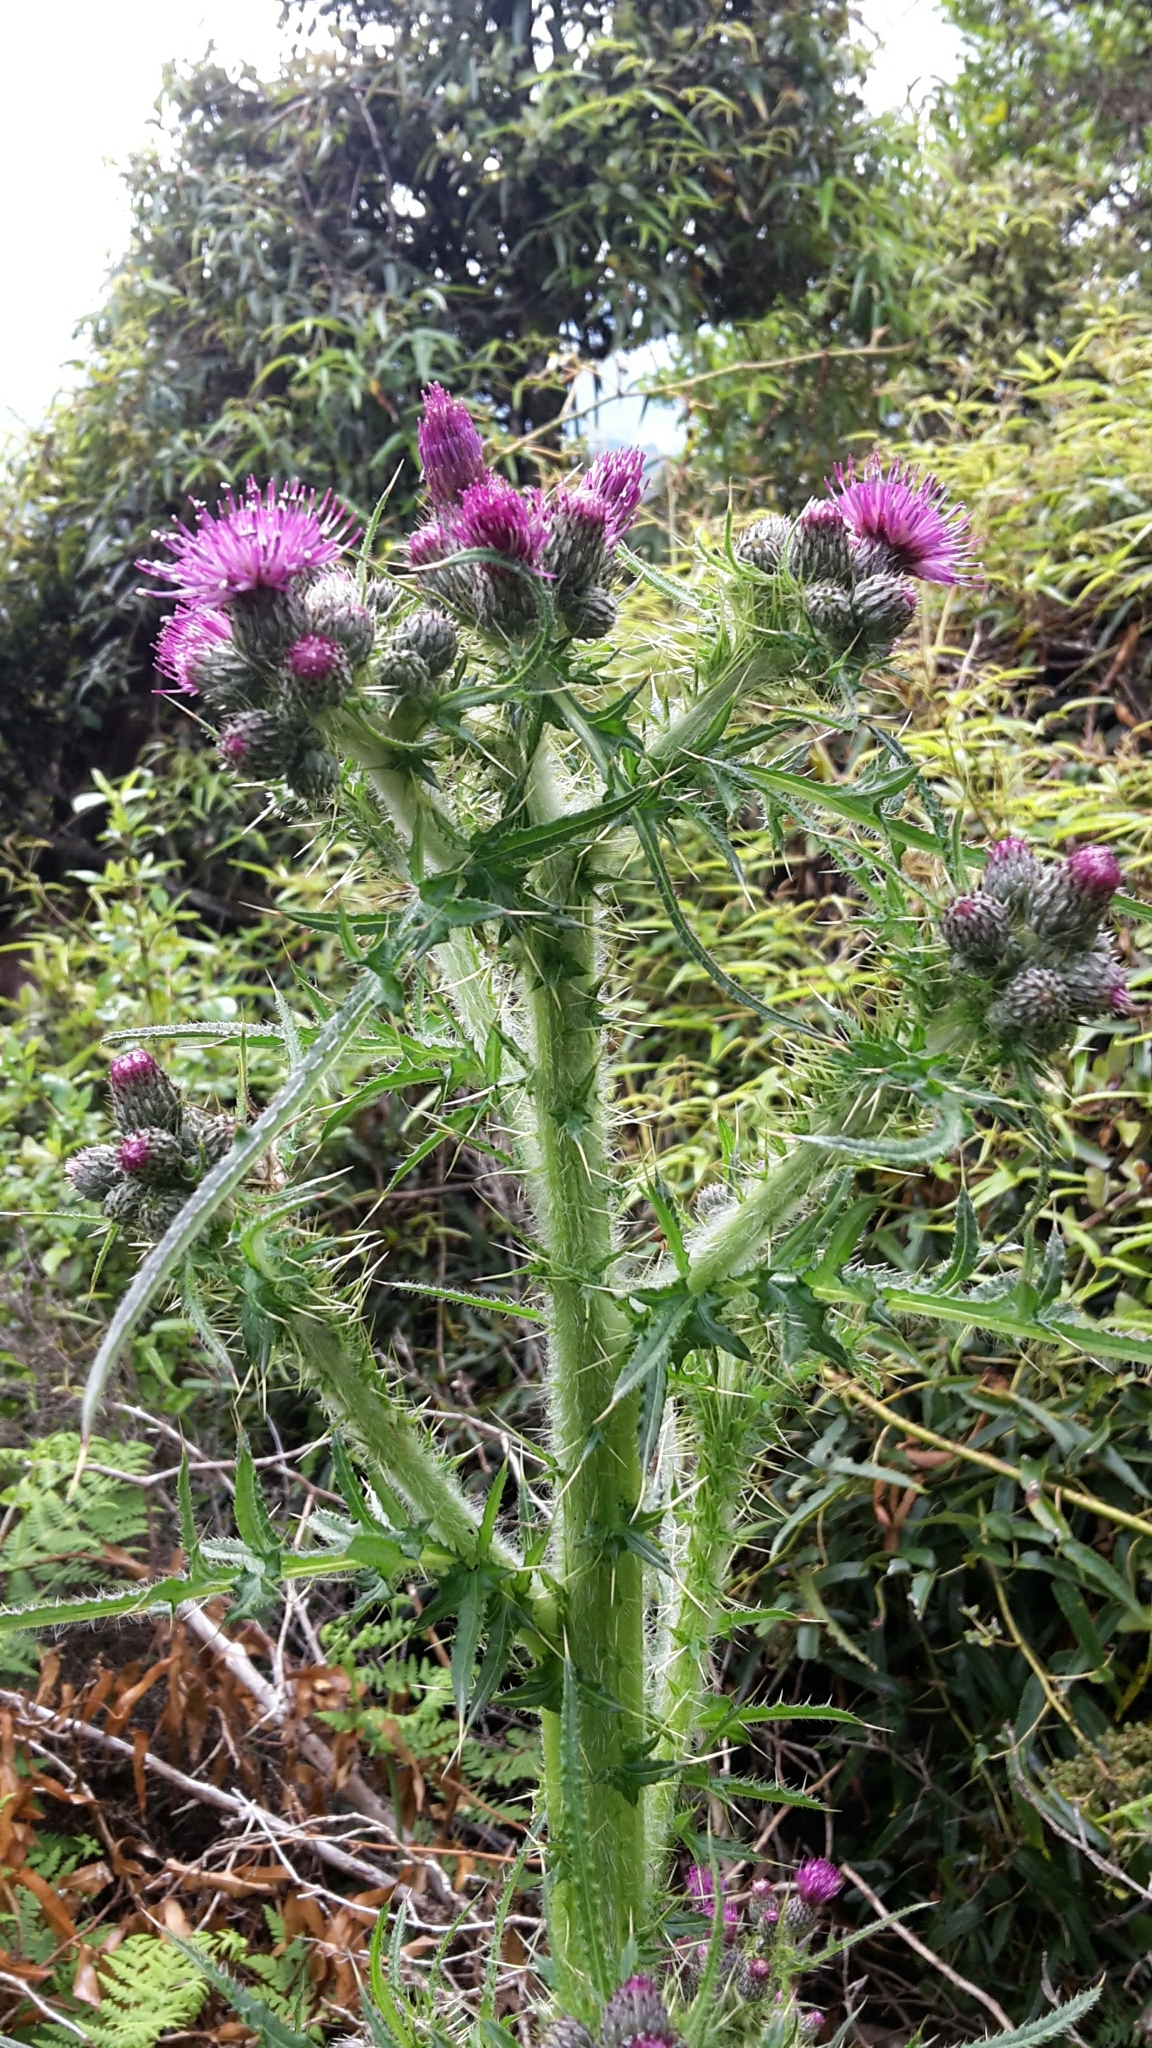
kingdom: Plantae
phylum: Tracheophyta
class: Magnoliopsida
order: Asterales
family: Asteraceae
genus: Cirsium
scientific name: Cirsium palustre
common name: Marsh thistle
